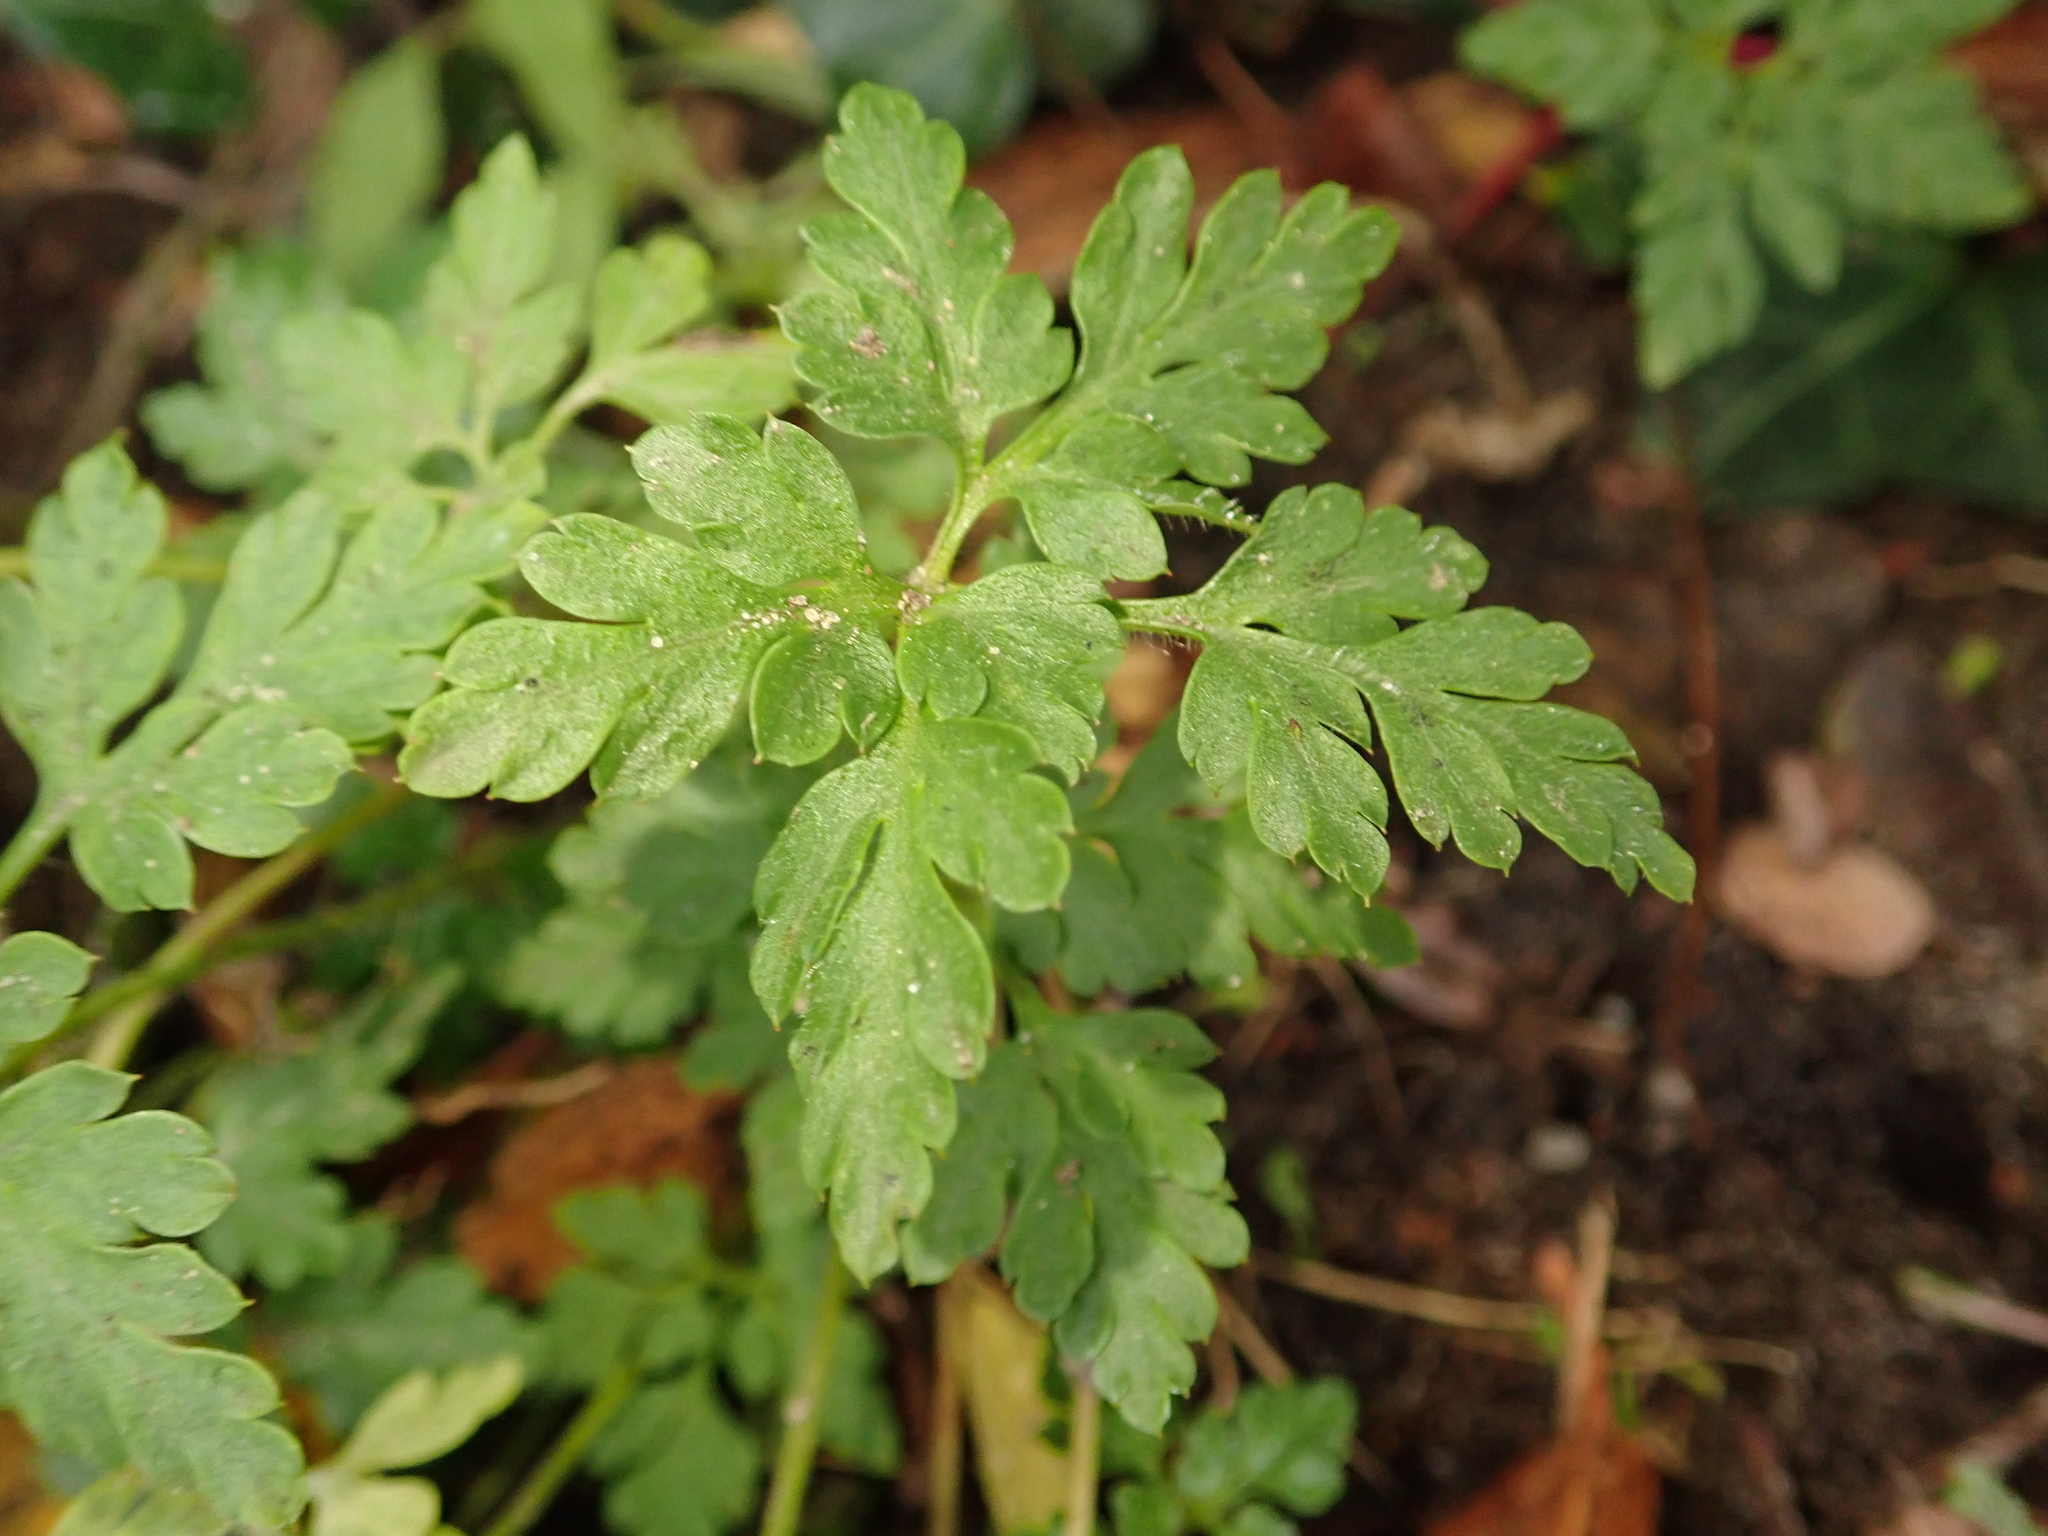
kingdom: Plantae
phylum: Tracheophyta
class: Magnoliopsida
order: Geraniales
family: Geraniaceae
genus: Geranium
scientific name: Geranium robertianum
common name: Herb-robert
